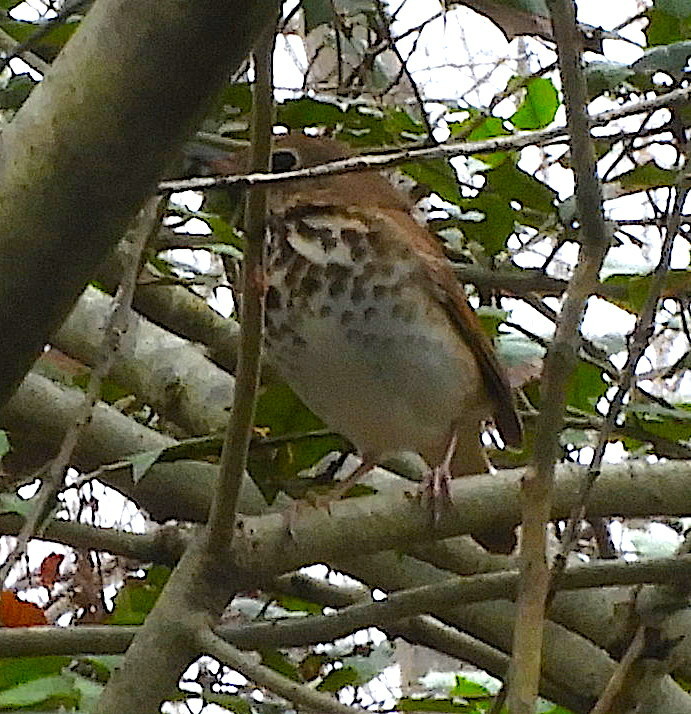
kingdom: Animalia
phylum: Chordata
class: Aves
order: Passeriformes
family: Turdidae
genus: Catharus
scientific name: Catharus guttatus
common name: Hermit thrush
